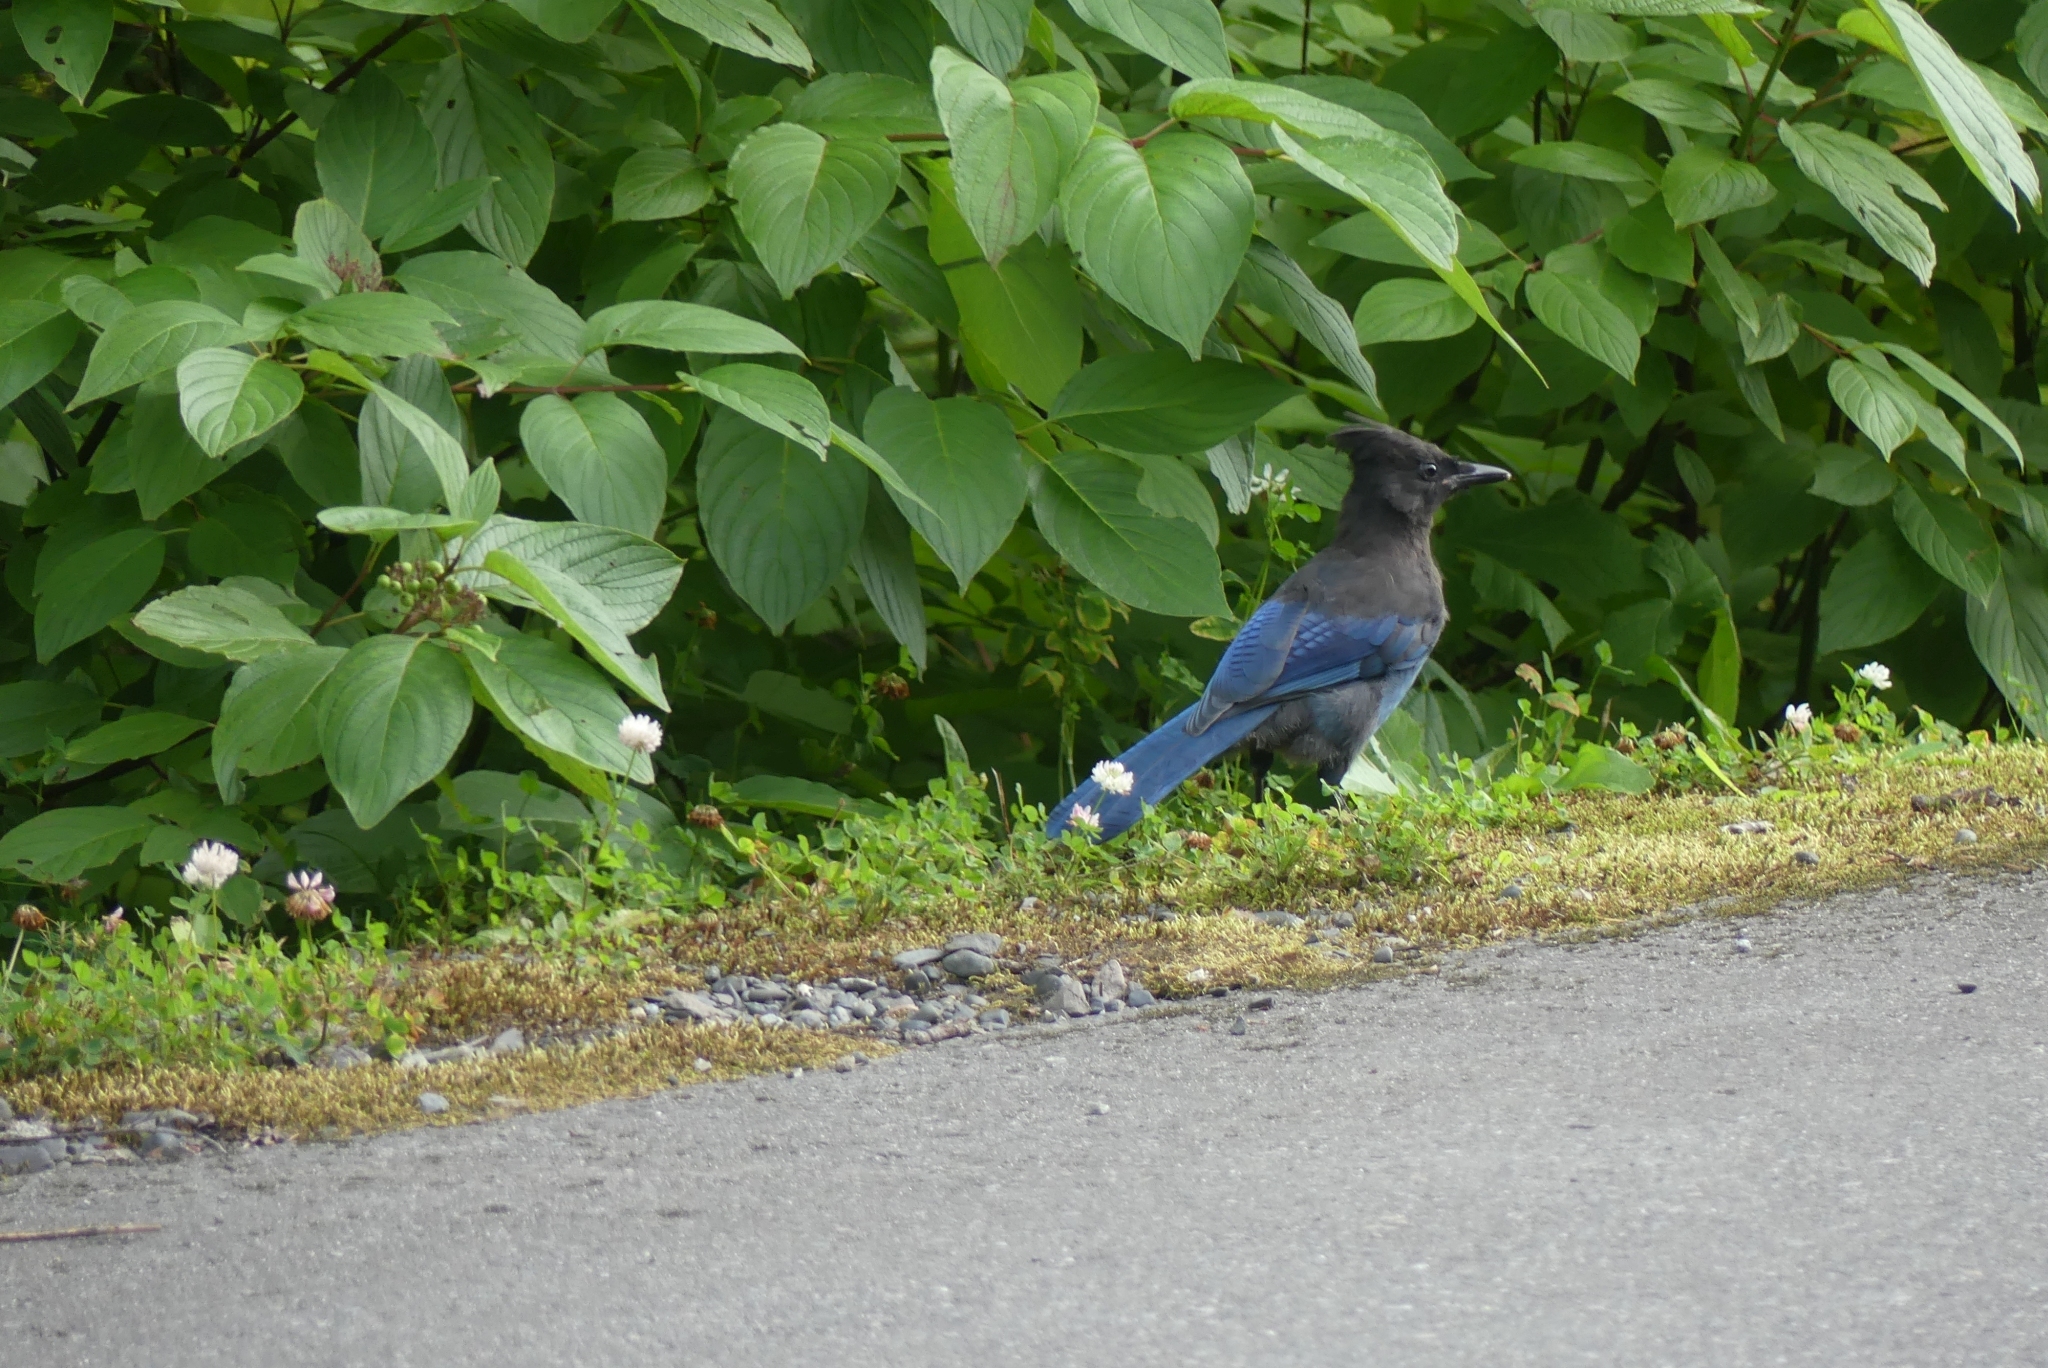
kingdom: Animalia
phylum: Chordata
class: Aves
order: Passeriformes
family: Corvidae
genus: Cyanocitta
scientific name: Cyanocitta stelleri
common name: Steller's jay
